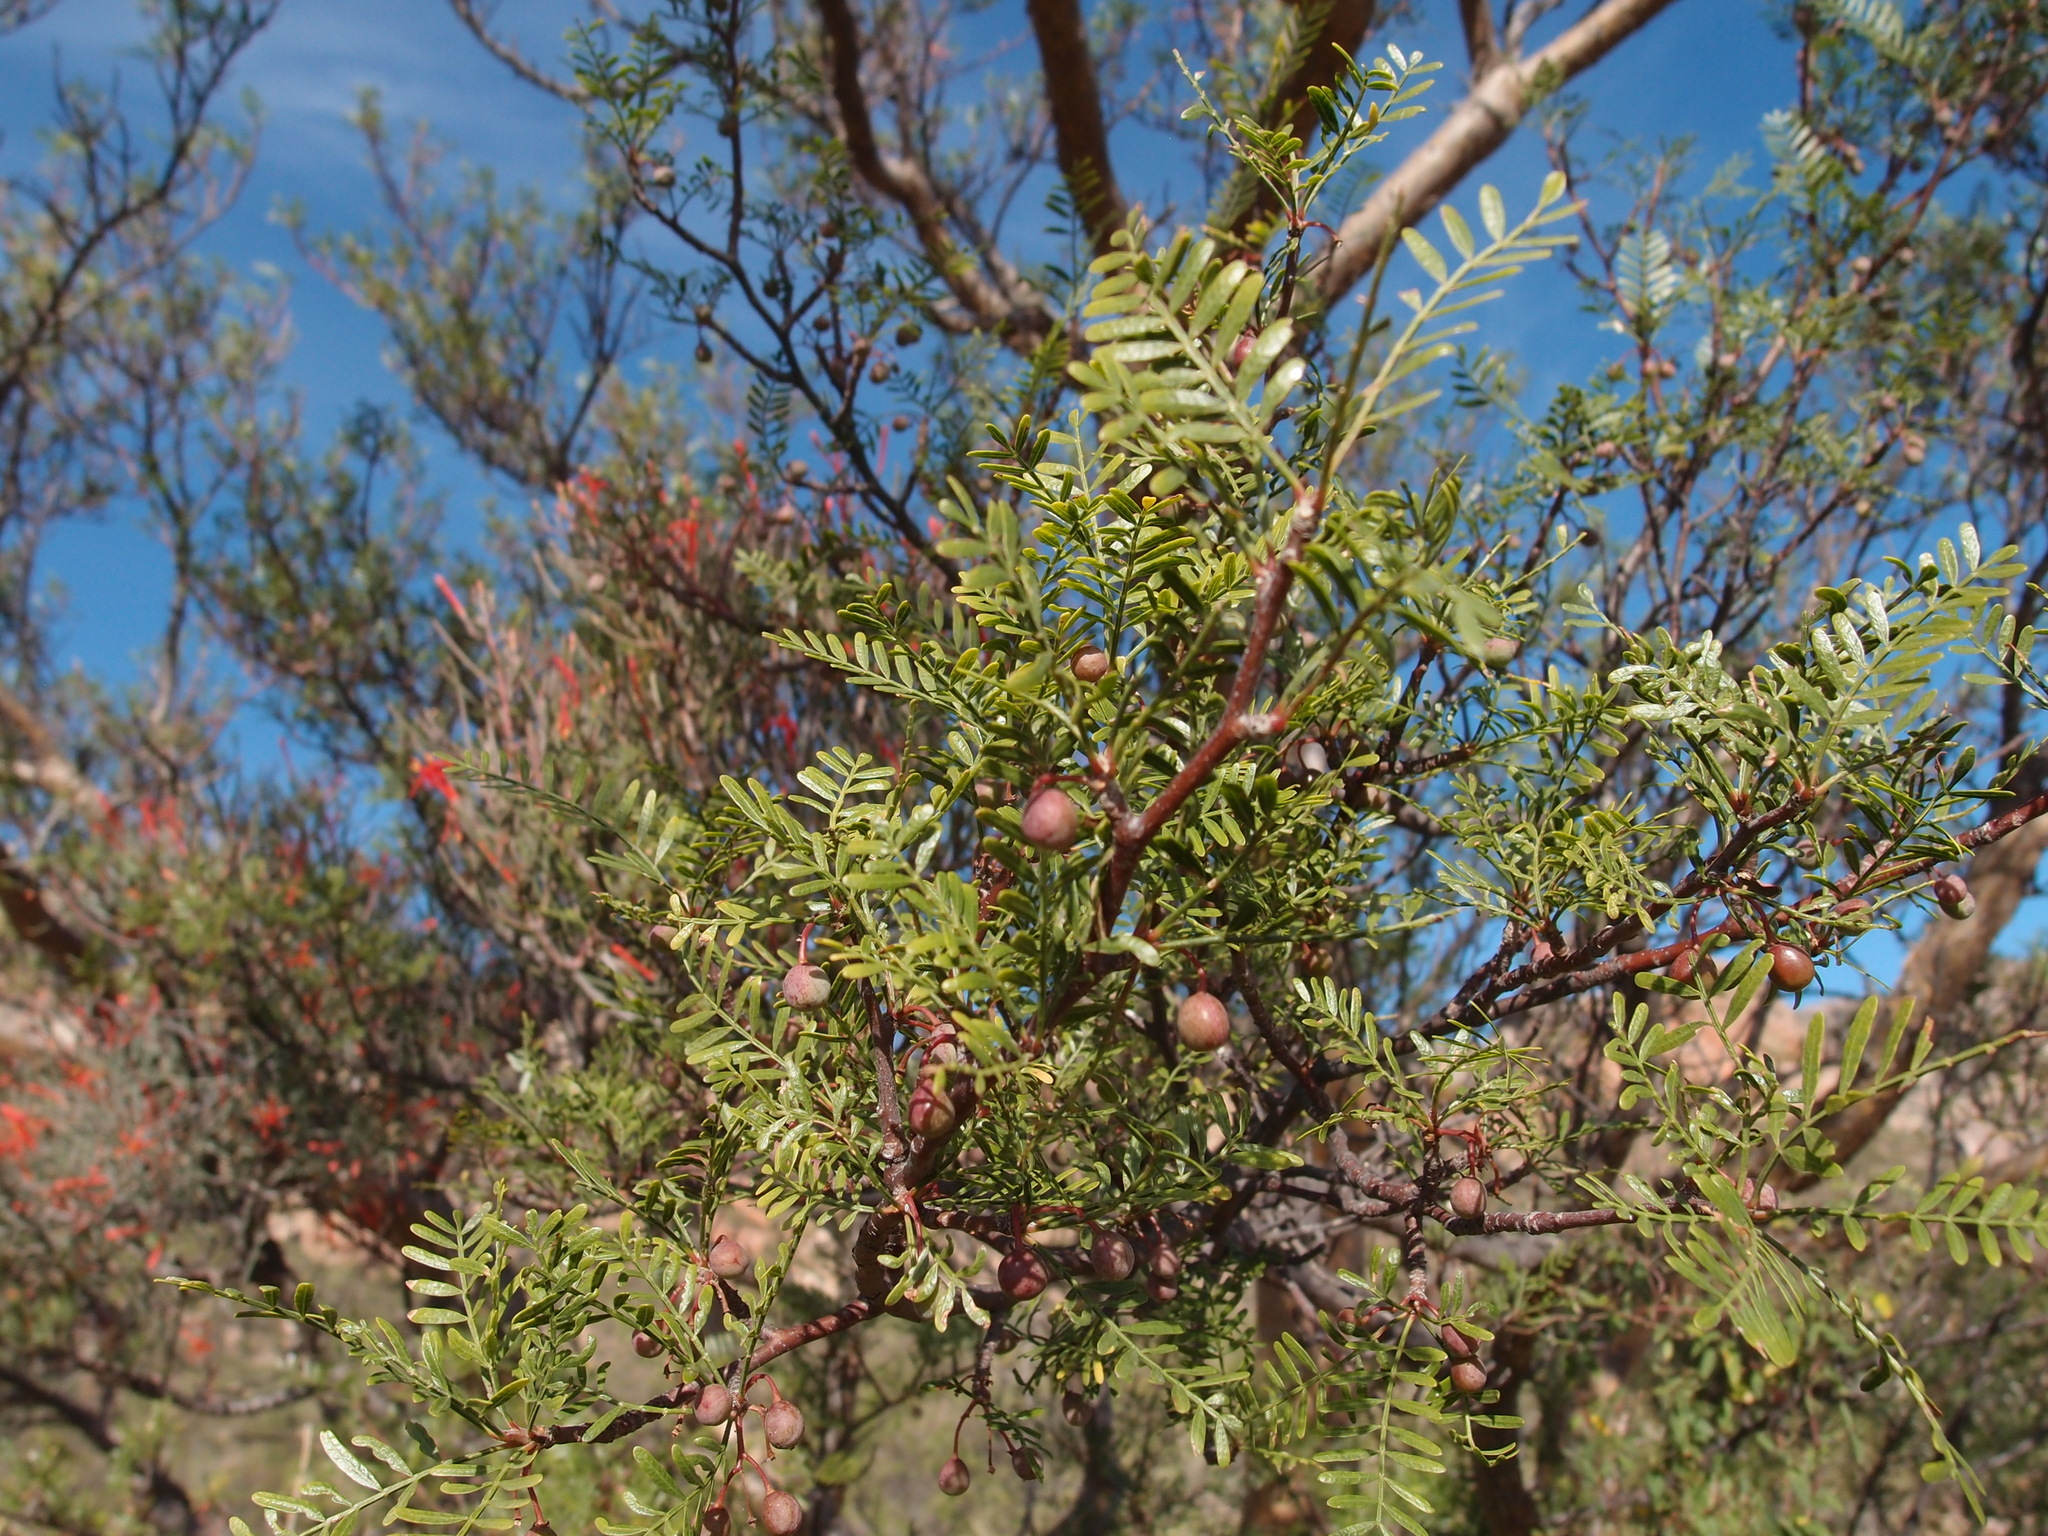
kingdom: Plantae
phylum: Tracheophyta
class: Magnoliopsida
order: Sapindales
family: Burseraceae
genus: Bursera
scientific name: Bursera microphylla
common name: Elephant tree
